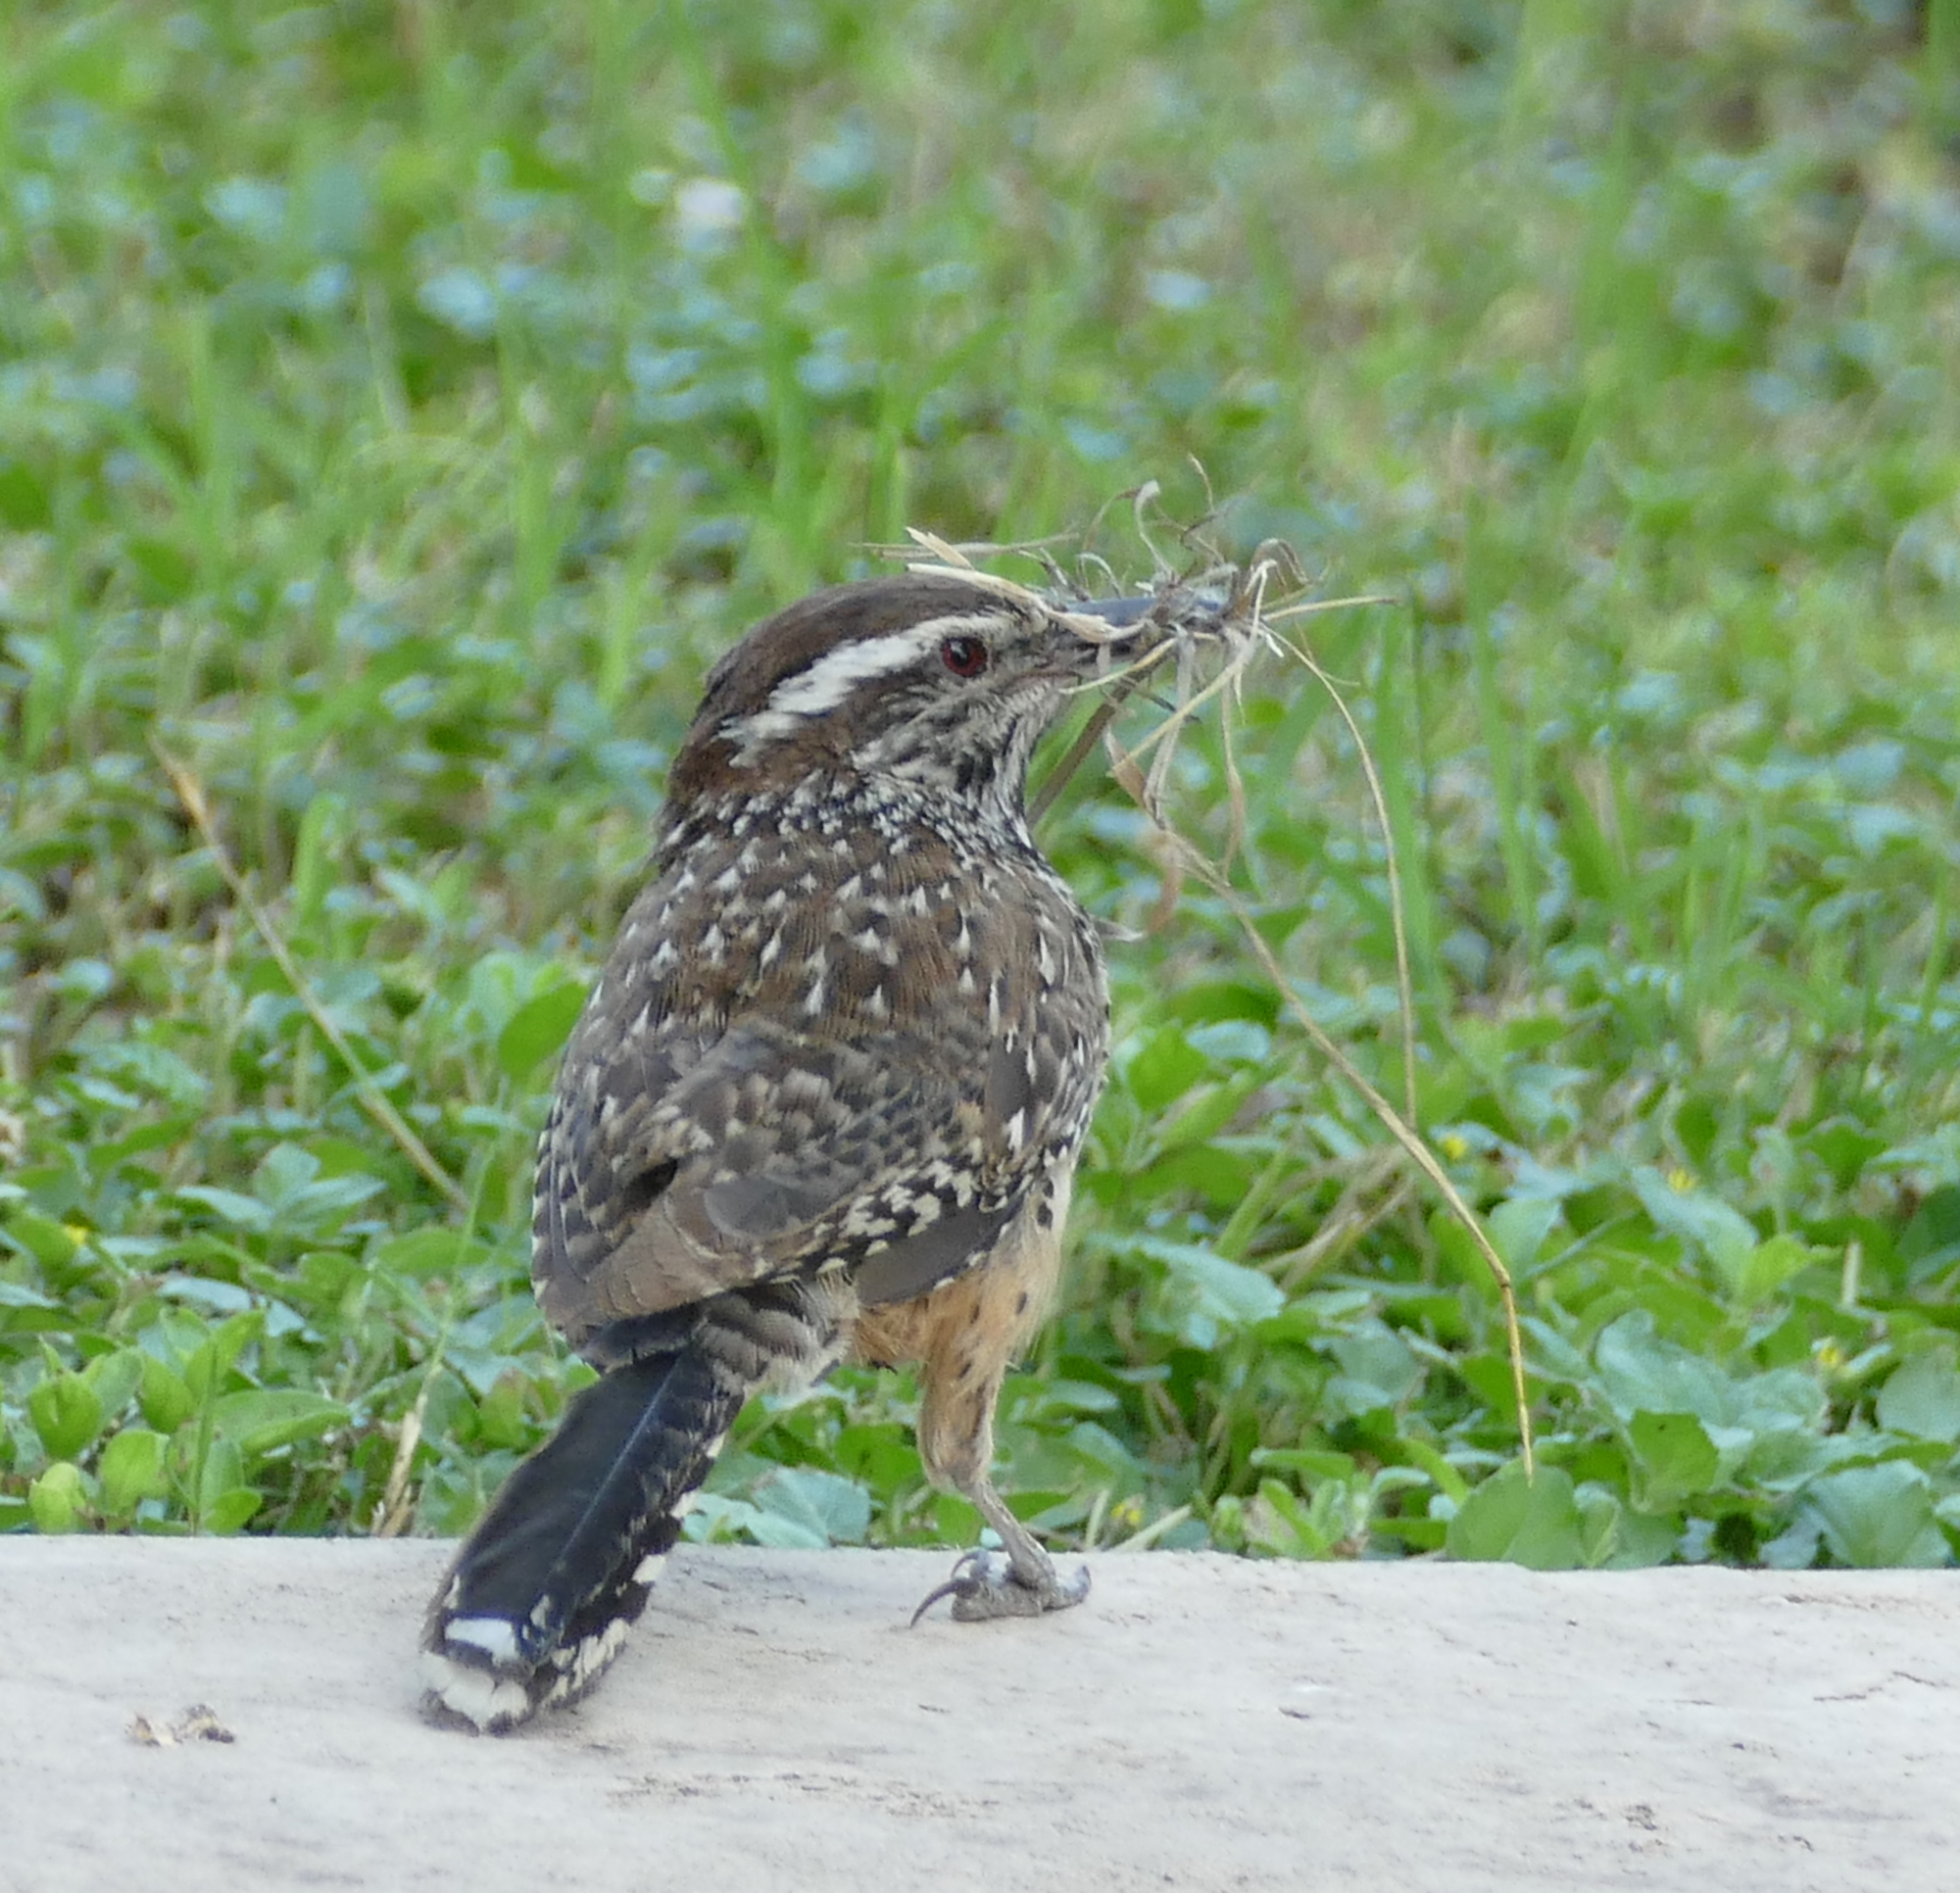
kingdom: Animalia
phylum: Chordata
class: Aves
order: Passeriformes
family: Troglodytidae
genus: Campylorhynchus
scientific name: Campylorhynchus brunneicapillus
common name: Cactus wren
